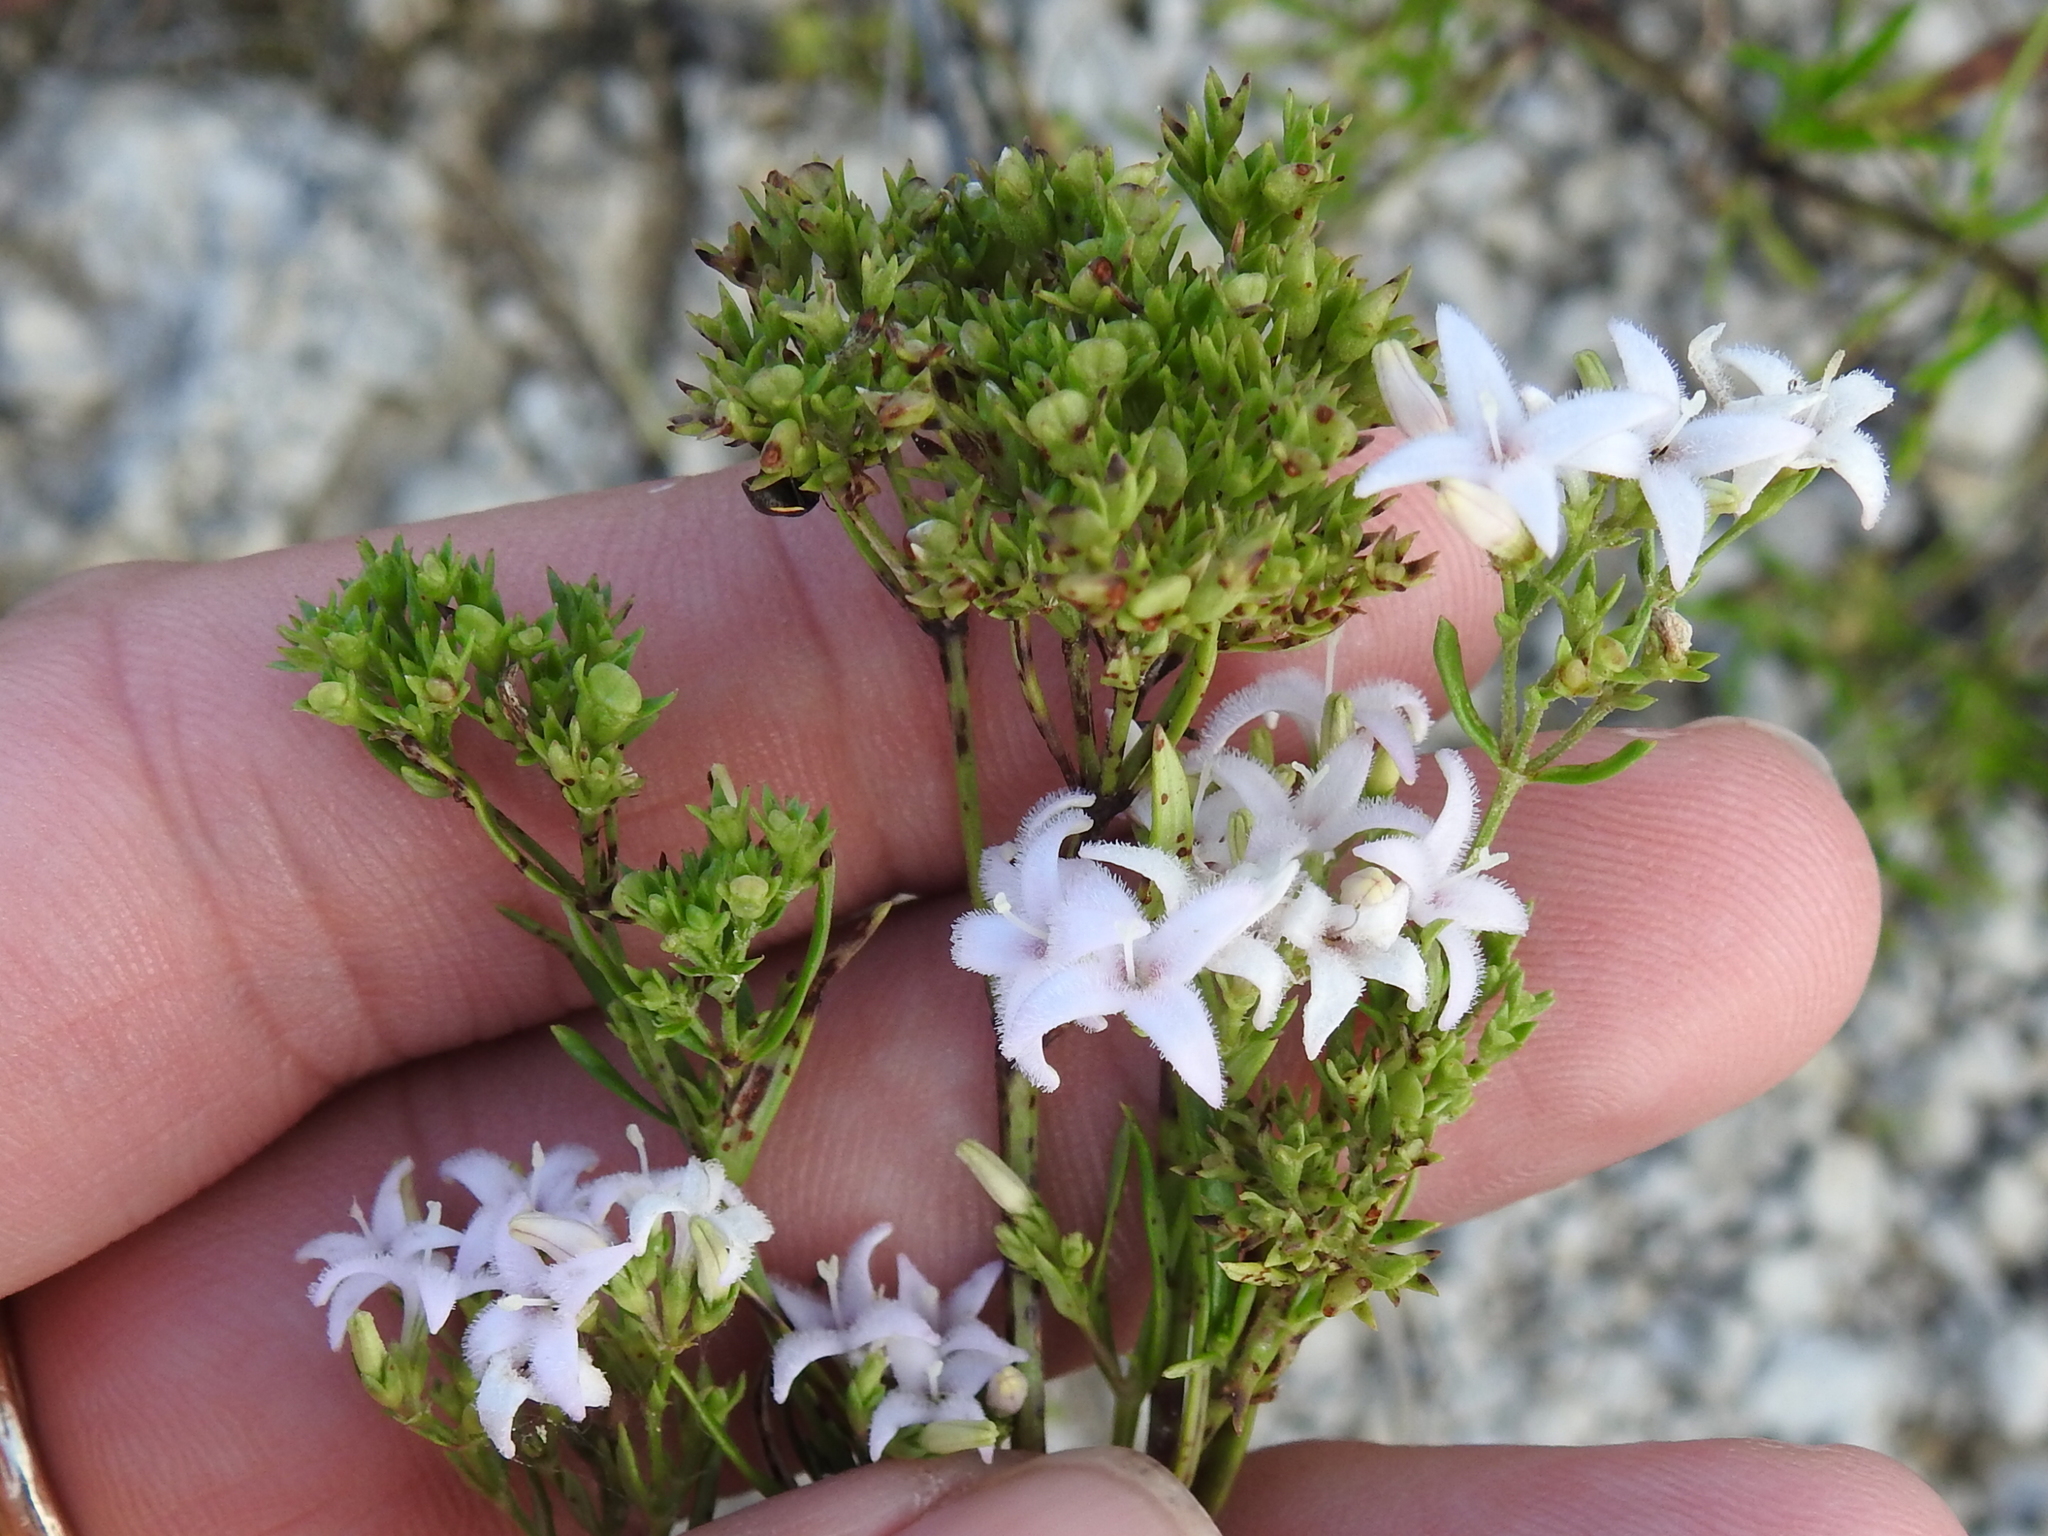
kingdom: Plantae
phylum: Tracheophyta
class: Magnoliopsida
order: Gentianales
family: Rubiaceae
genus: Stenaria
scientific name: Stenaria nigricans
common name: Diamondflowers
